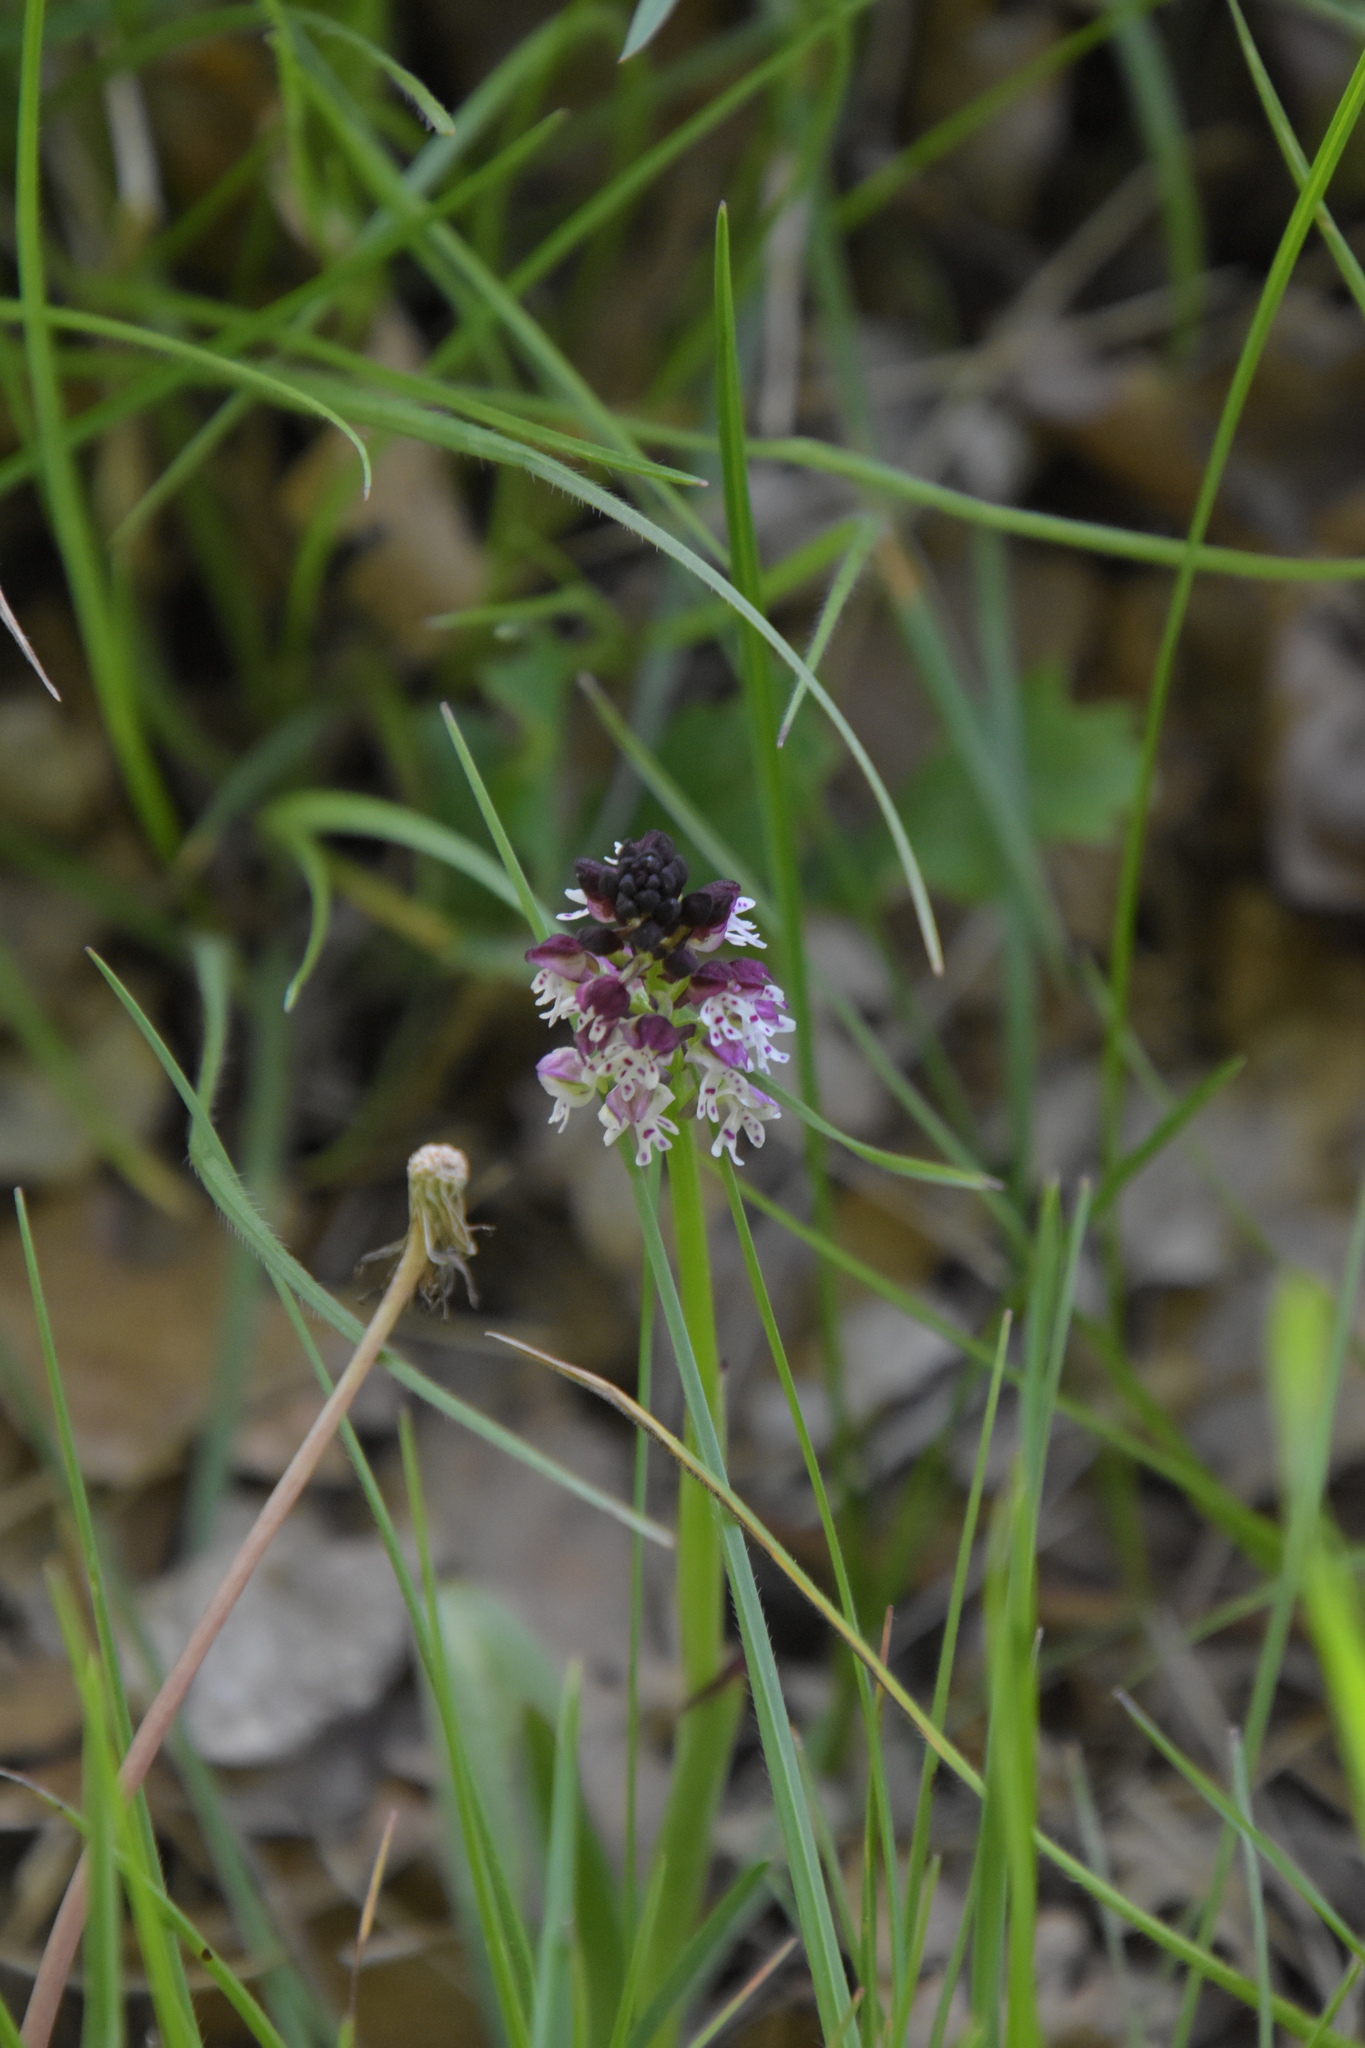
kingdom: Plantae
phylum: Tracheophyta
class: Liliopsida
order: Asparagales
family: Orchidaceae
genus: Neotinea
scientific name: Neotinea ustulata
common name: Burnt orchid
